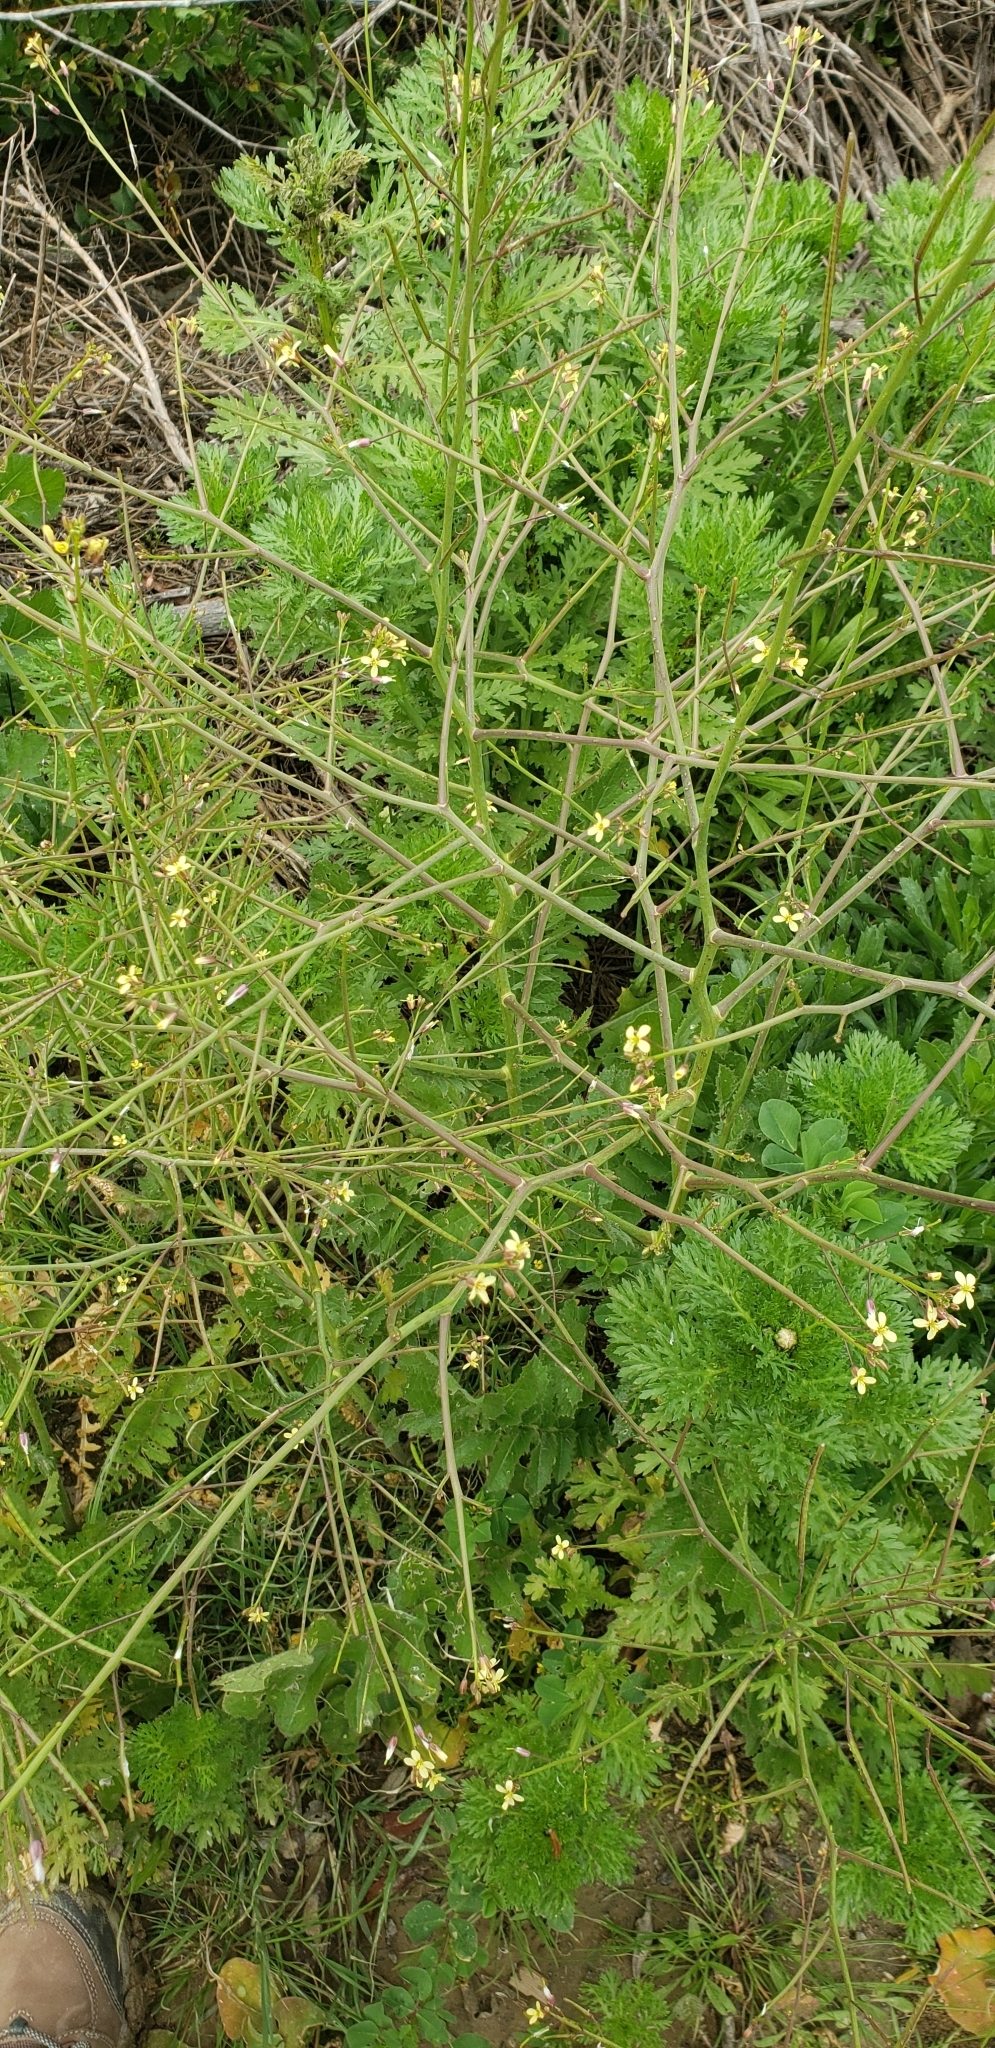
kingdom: Plantae
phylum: Tracheophyta
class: Magnoliopsida
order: Brassicales
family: Brassicaceae
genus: Brassica
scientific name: Brassica tournefortii
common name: Pale cabbage
